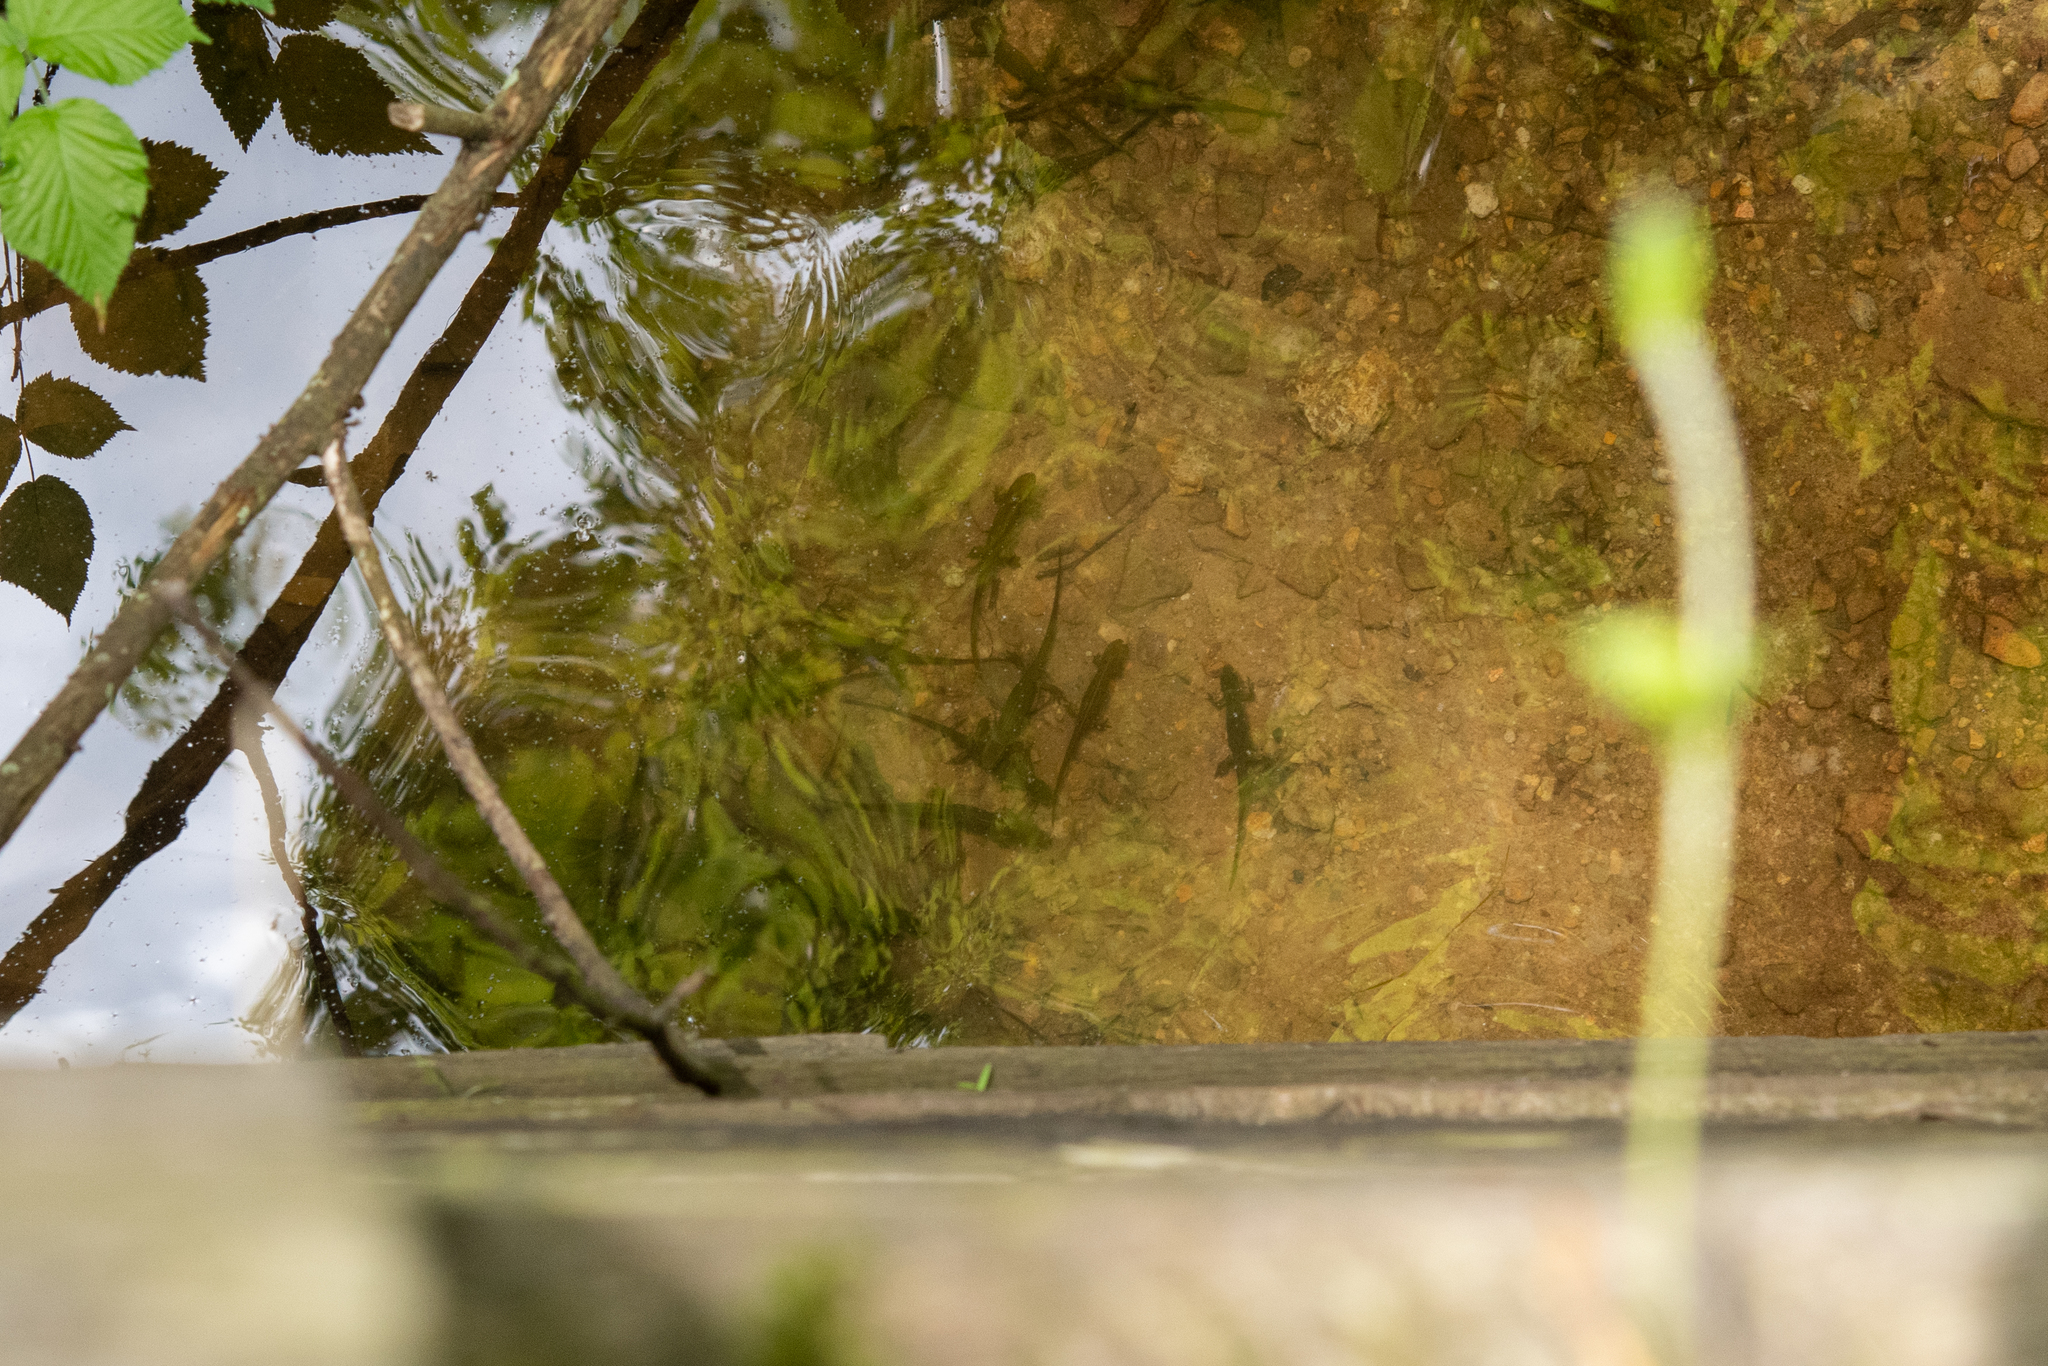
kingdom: Animalia
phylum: Chordata
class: Amphibia
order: Caudata
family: Salamandridae
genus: Notophthalmus
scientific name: Notophthalmus viridescens
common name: Eastern newt
